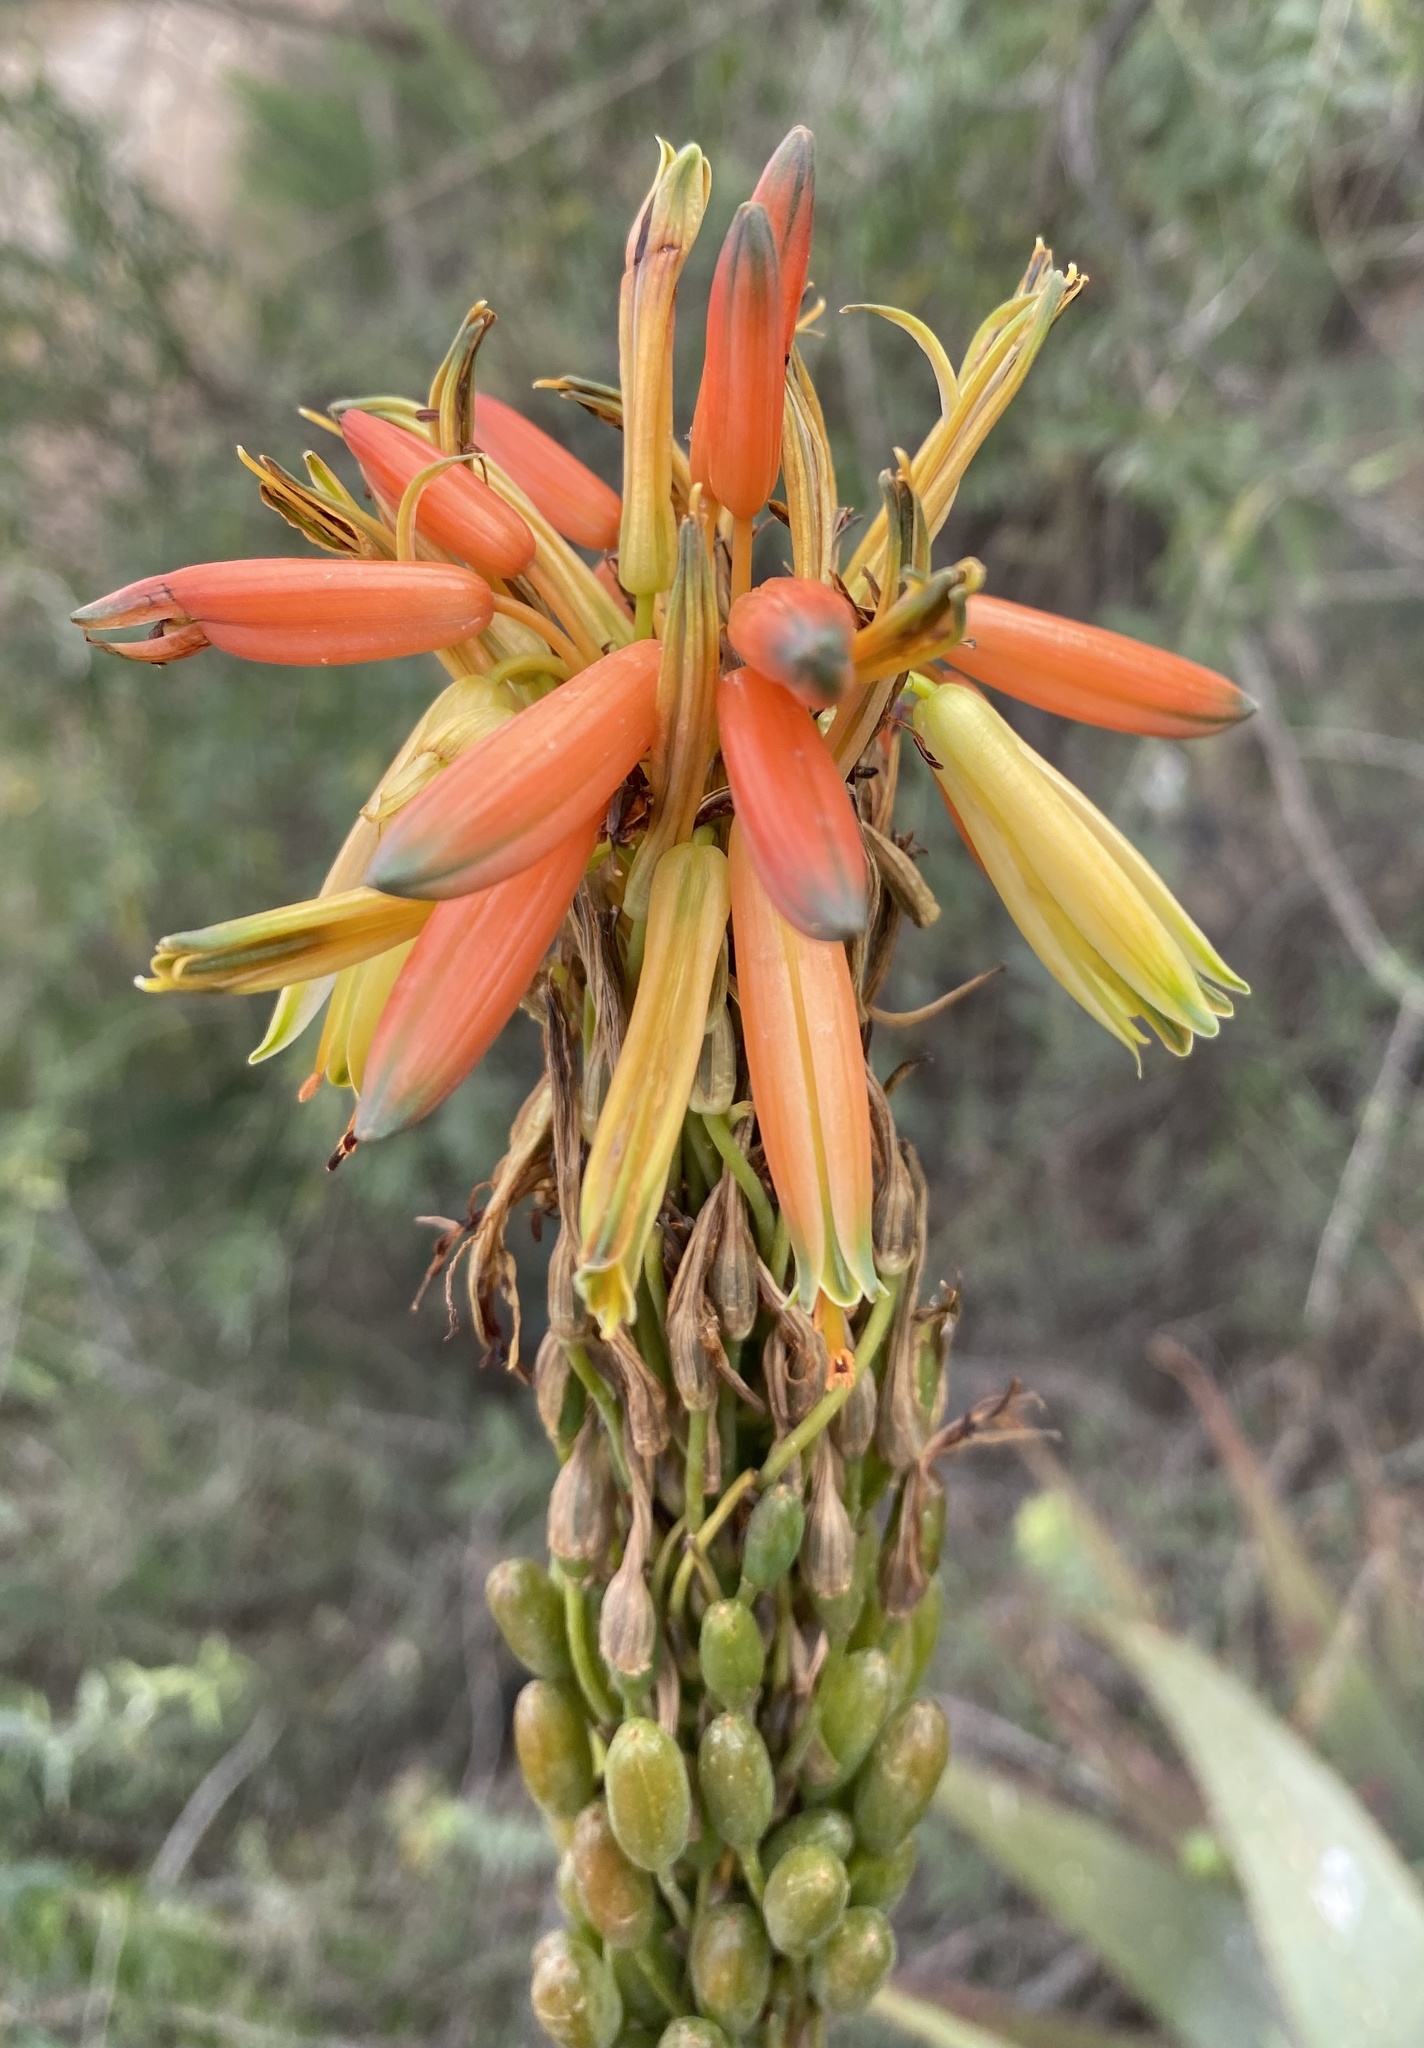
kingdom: Plantae
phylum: Tracheophyta
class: Liliopsida
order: Asparagales
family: Asphodelaceae
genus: Aloe
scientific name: Aloe microstigma
